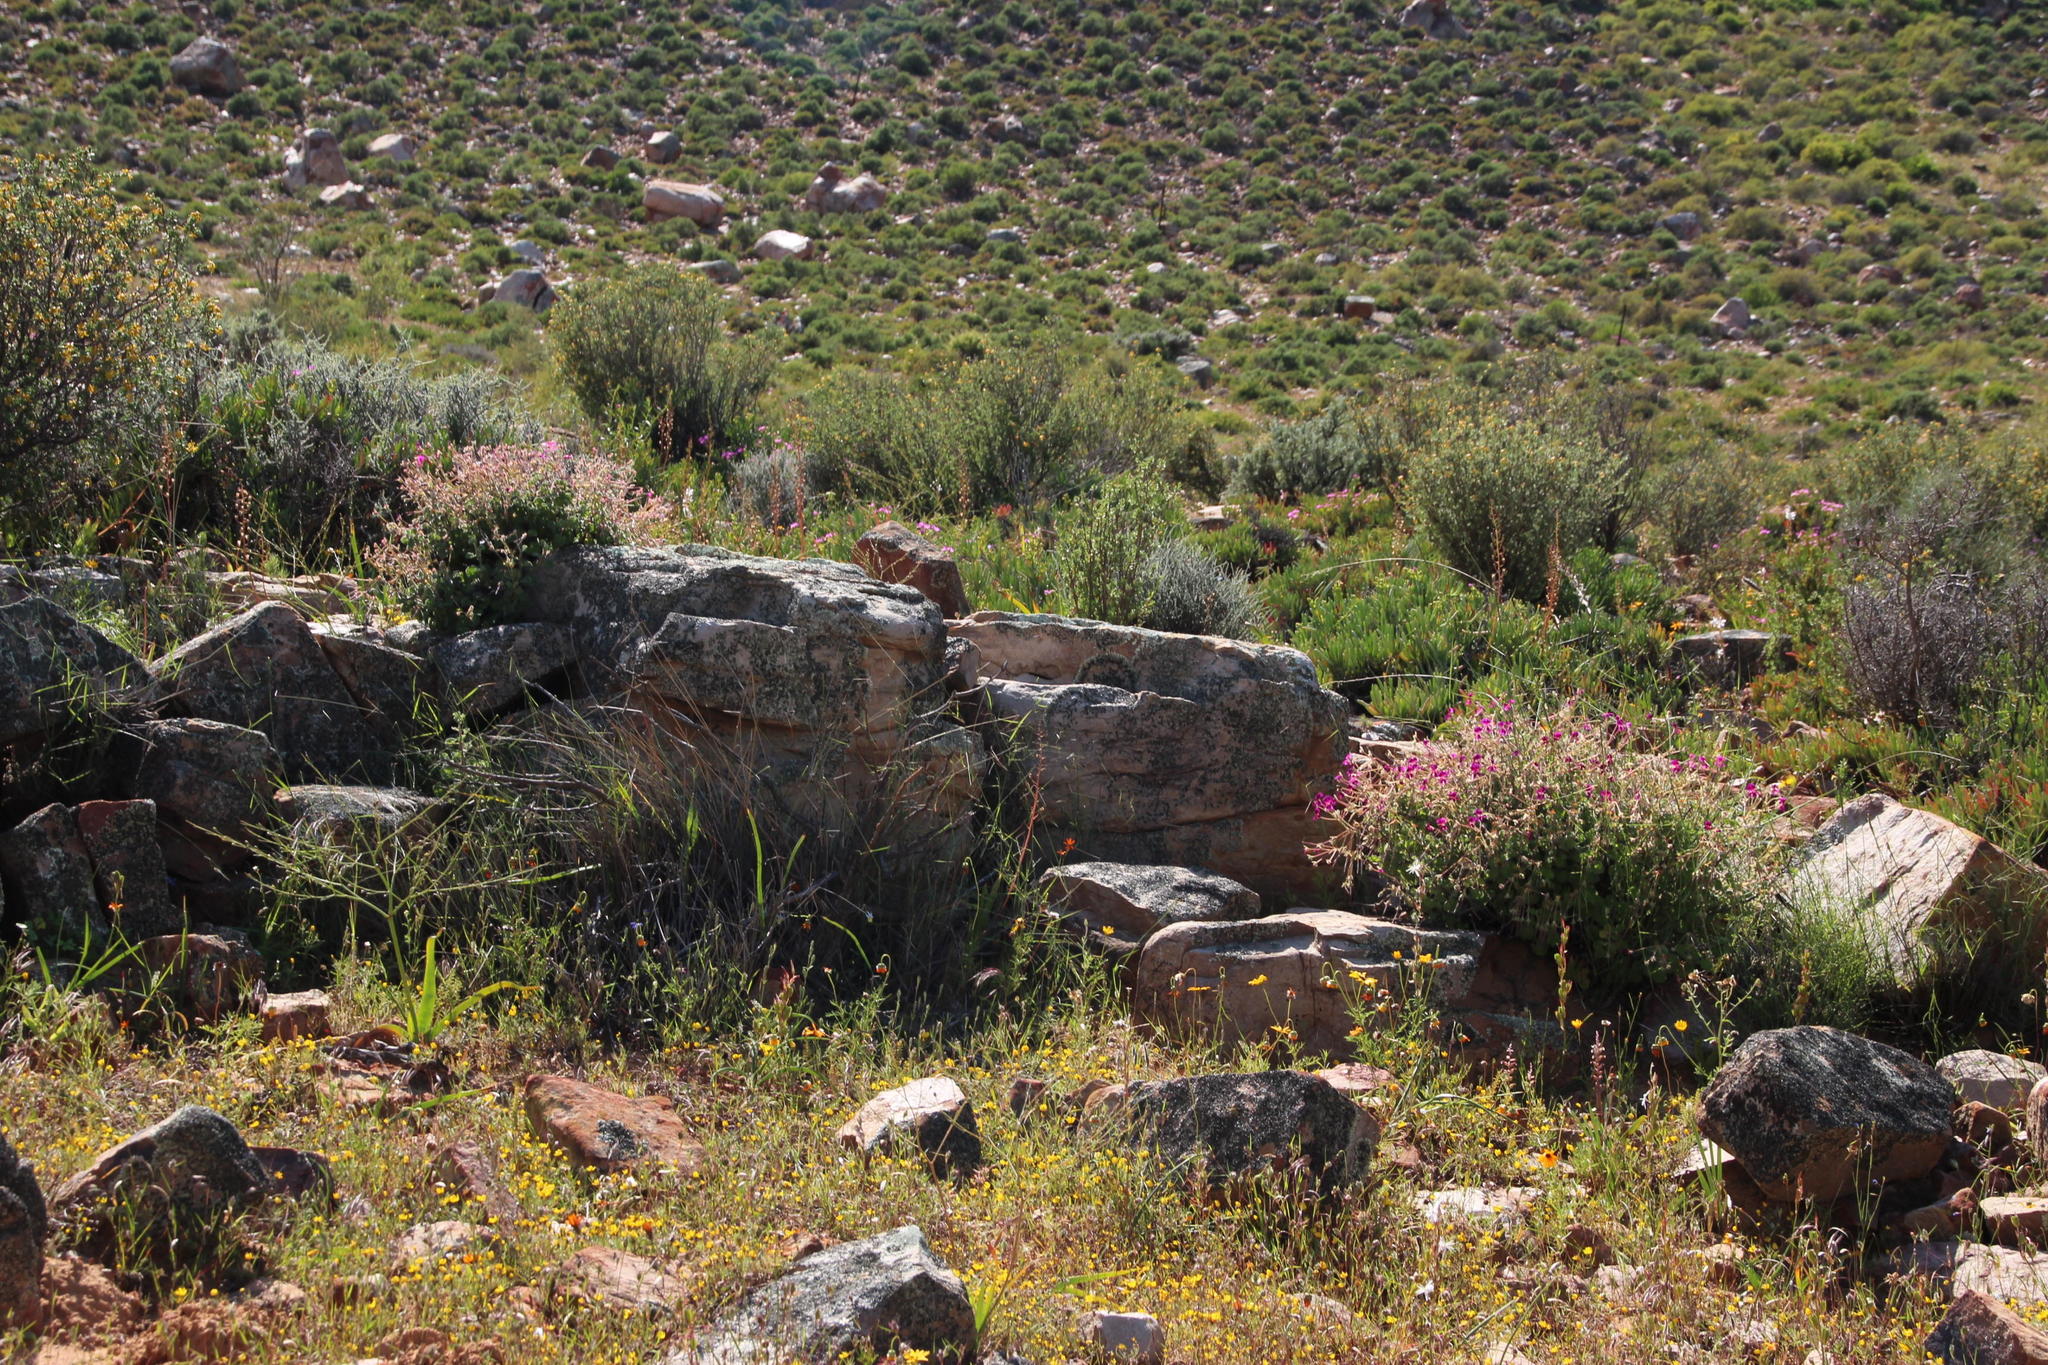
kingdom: Plantae
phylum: Tracheophyta
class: Magnoliopsida
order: Geraniales
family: Geraniaceae
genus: Pelargonium
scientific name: Pelargonium magenteum
